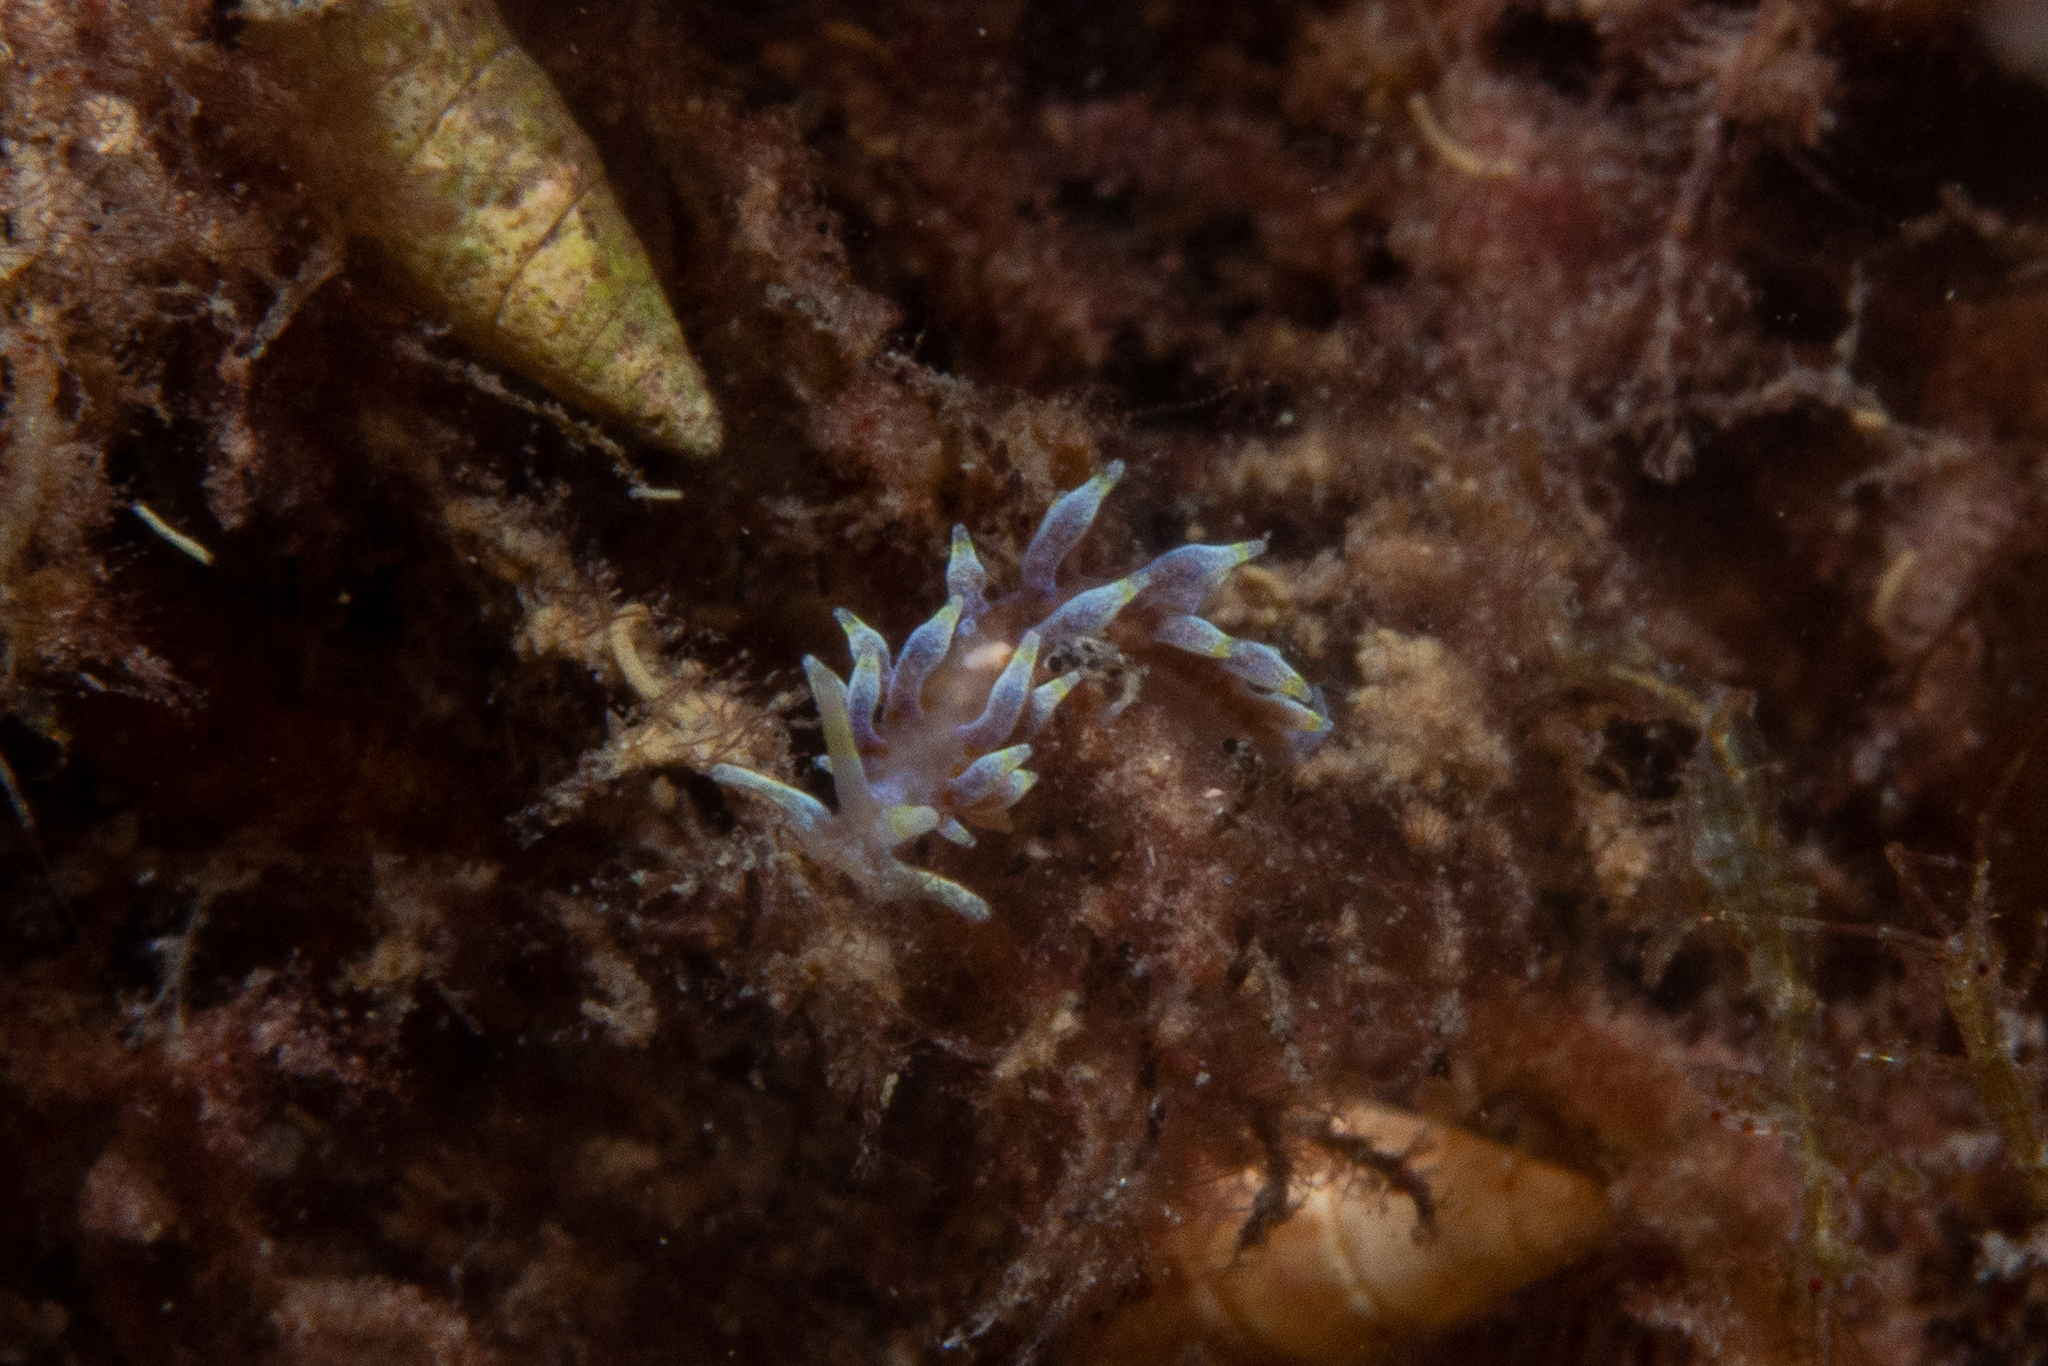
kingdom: Animalia
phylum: Mollusca
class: Gastropoda
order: Nudibranchia
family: Myrrhinidae
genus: Phyllodesmium
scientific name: Phyllodesmium macphersonae
